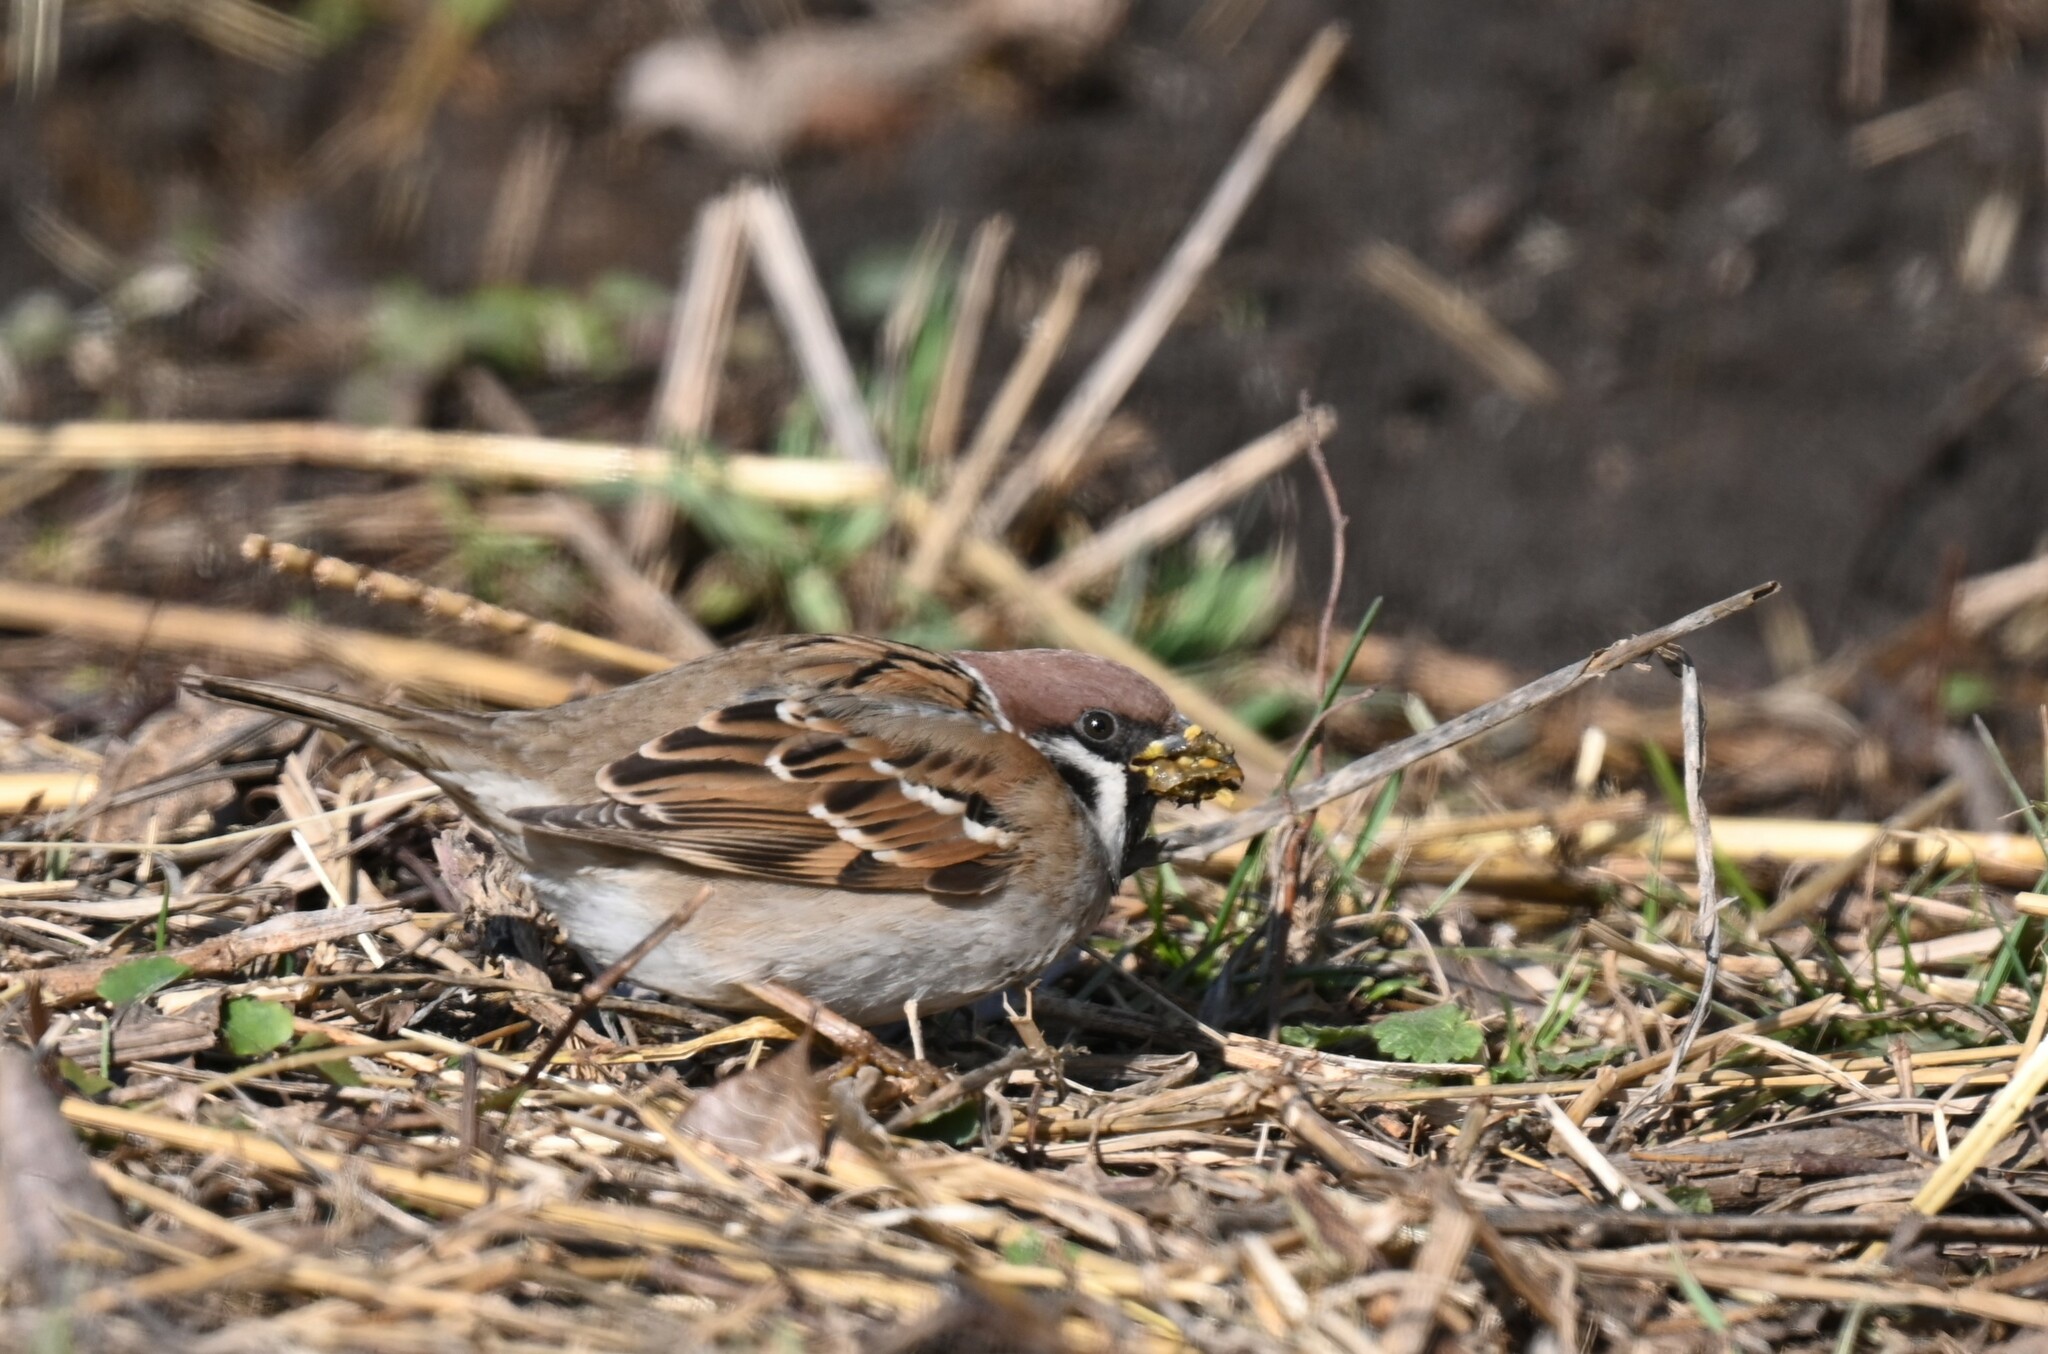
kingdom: Animalia
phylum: Chordata
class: Aves
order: Passeriformes
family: Passeridae
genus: Passer
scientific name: Passer montanus
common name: Eurasian tree sparrow
